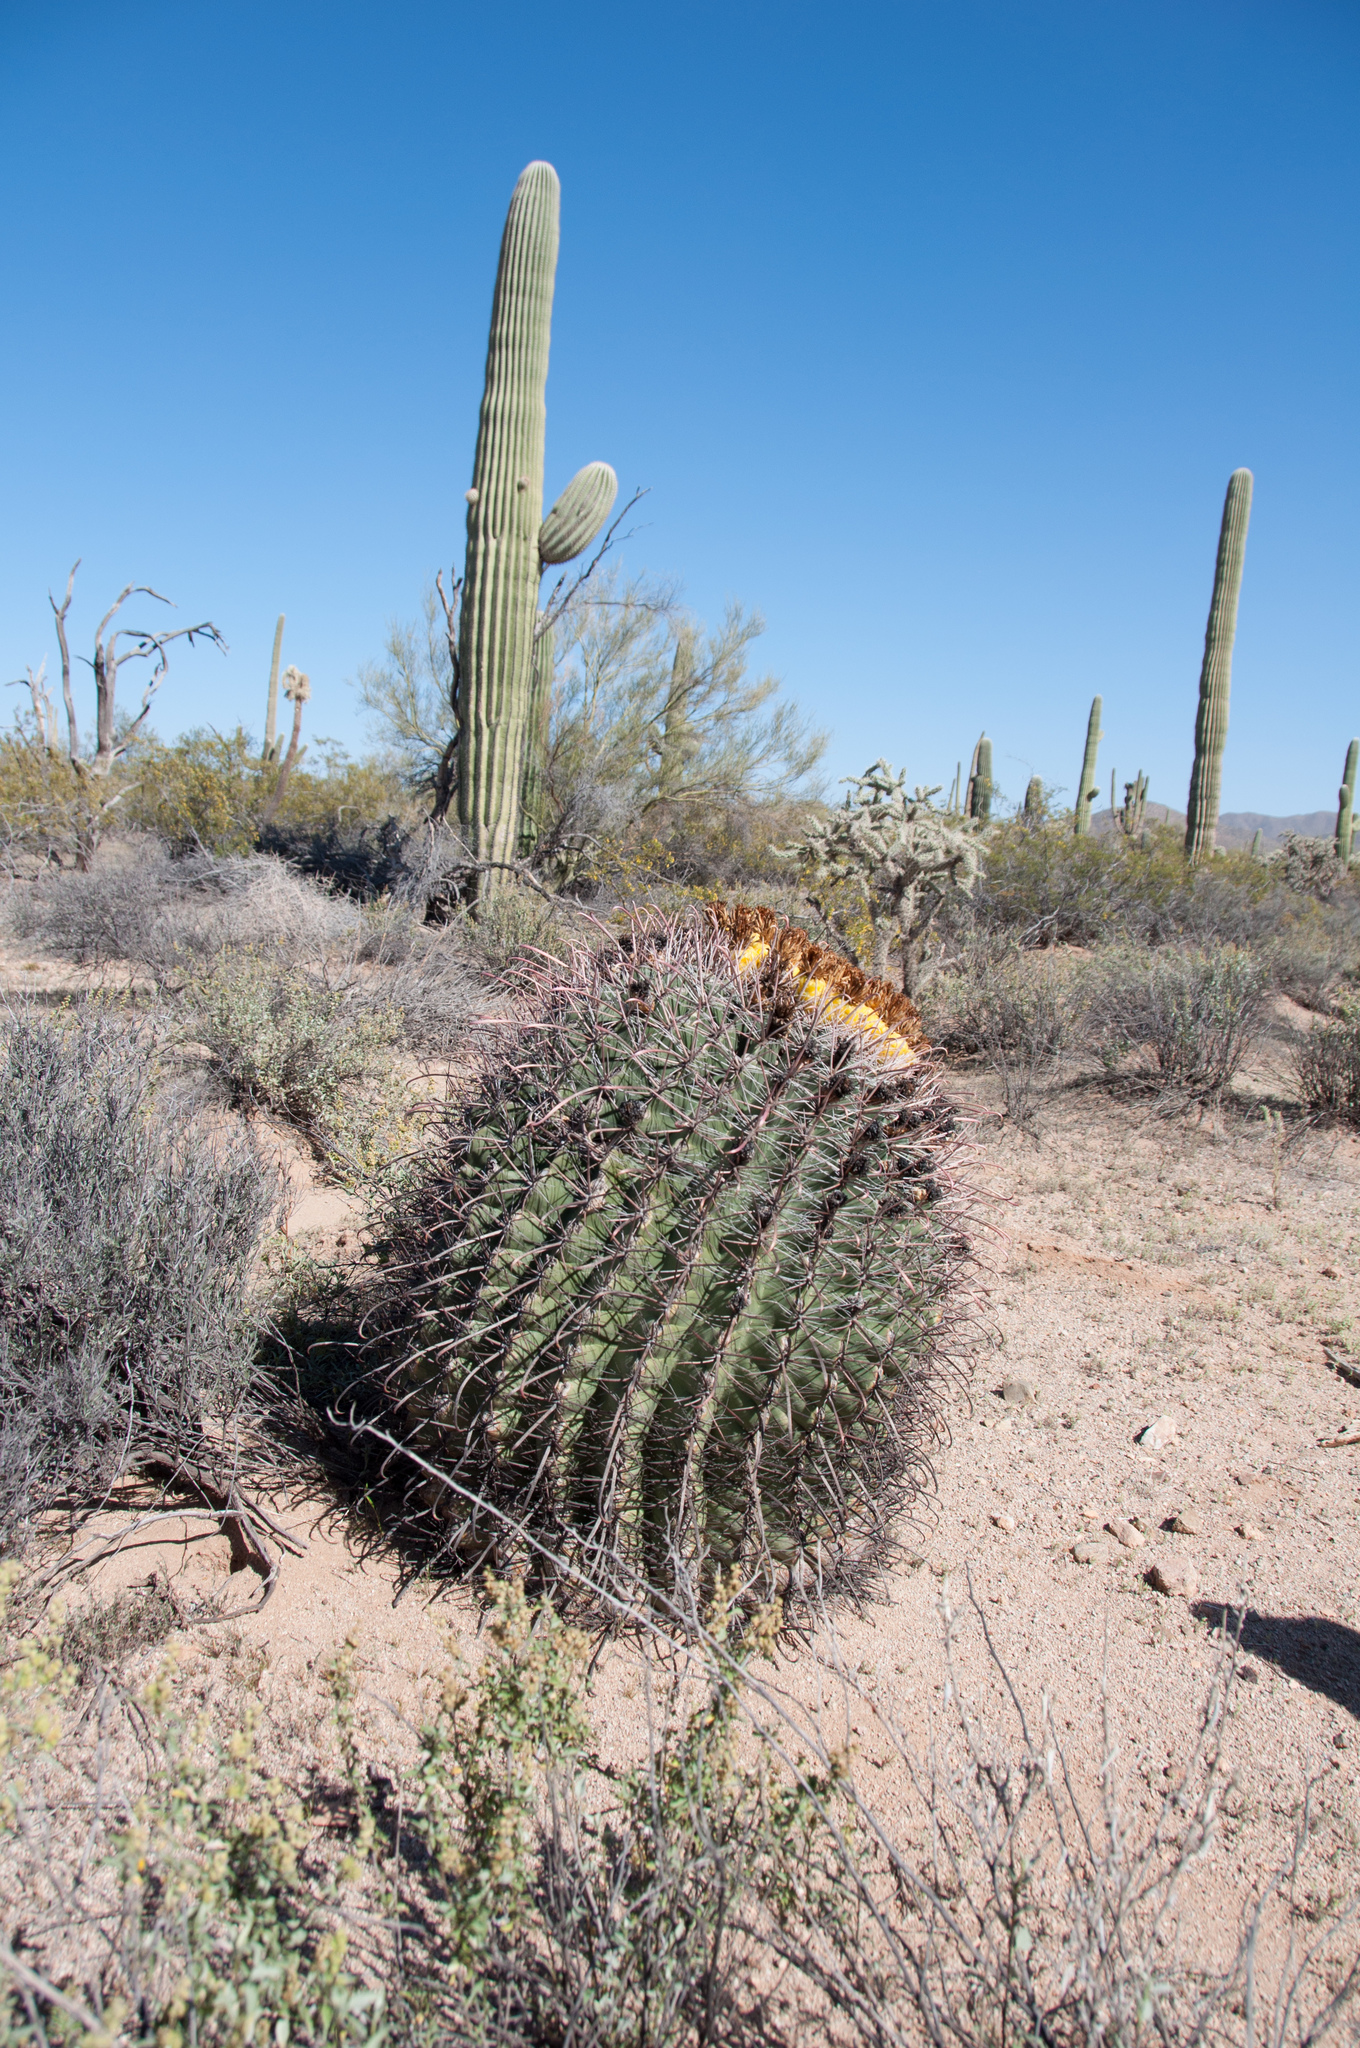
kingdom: Plantae
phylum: Tracheophyta
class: Magnoliopsida
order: Caryophyllales
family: Cactaceae
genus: Ferocactus
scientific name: Ferocactus wislizeni
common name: Candy barrel cactus
